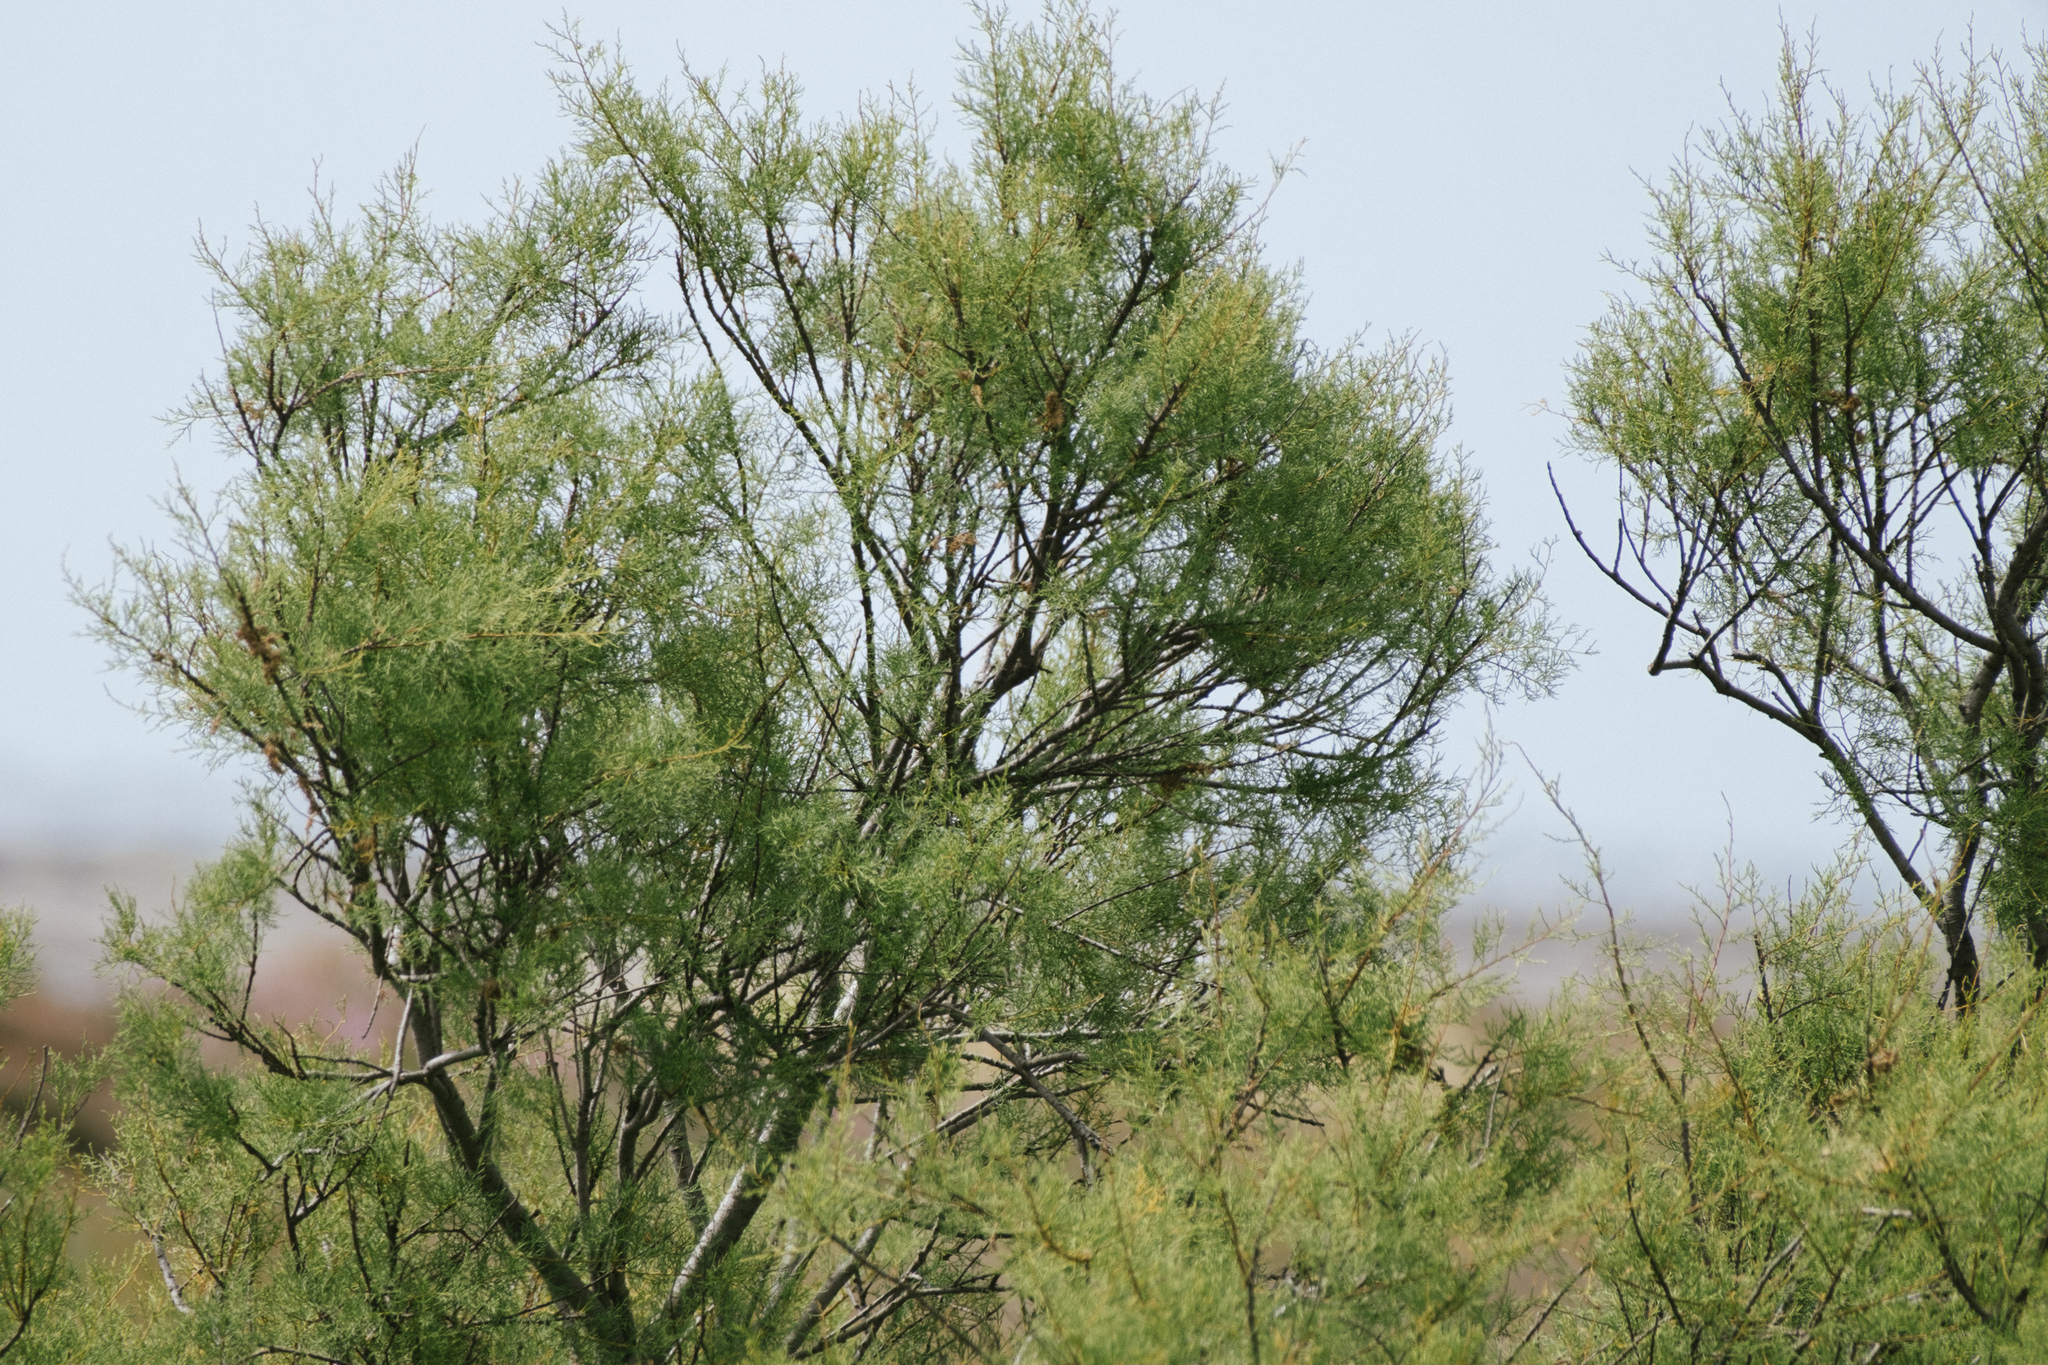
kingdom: Plantae
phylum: Tracheophyta
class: Magnoliopsida
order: Caryophyllales
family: Tamaricaceae
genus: Tamarix
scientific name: Tamarix africana
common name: African tamarisk
